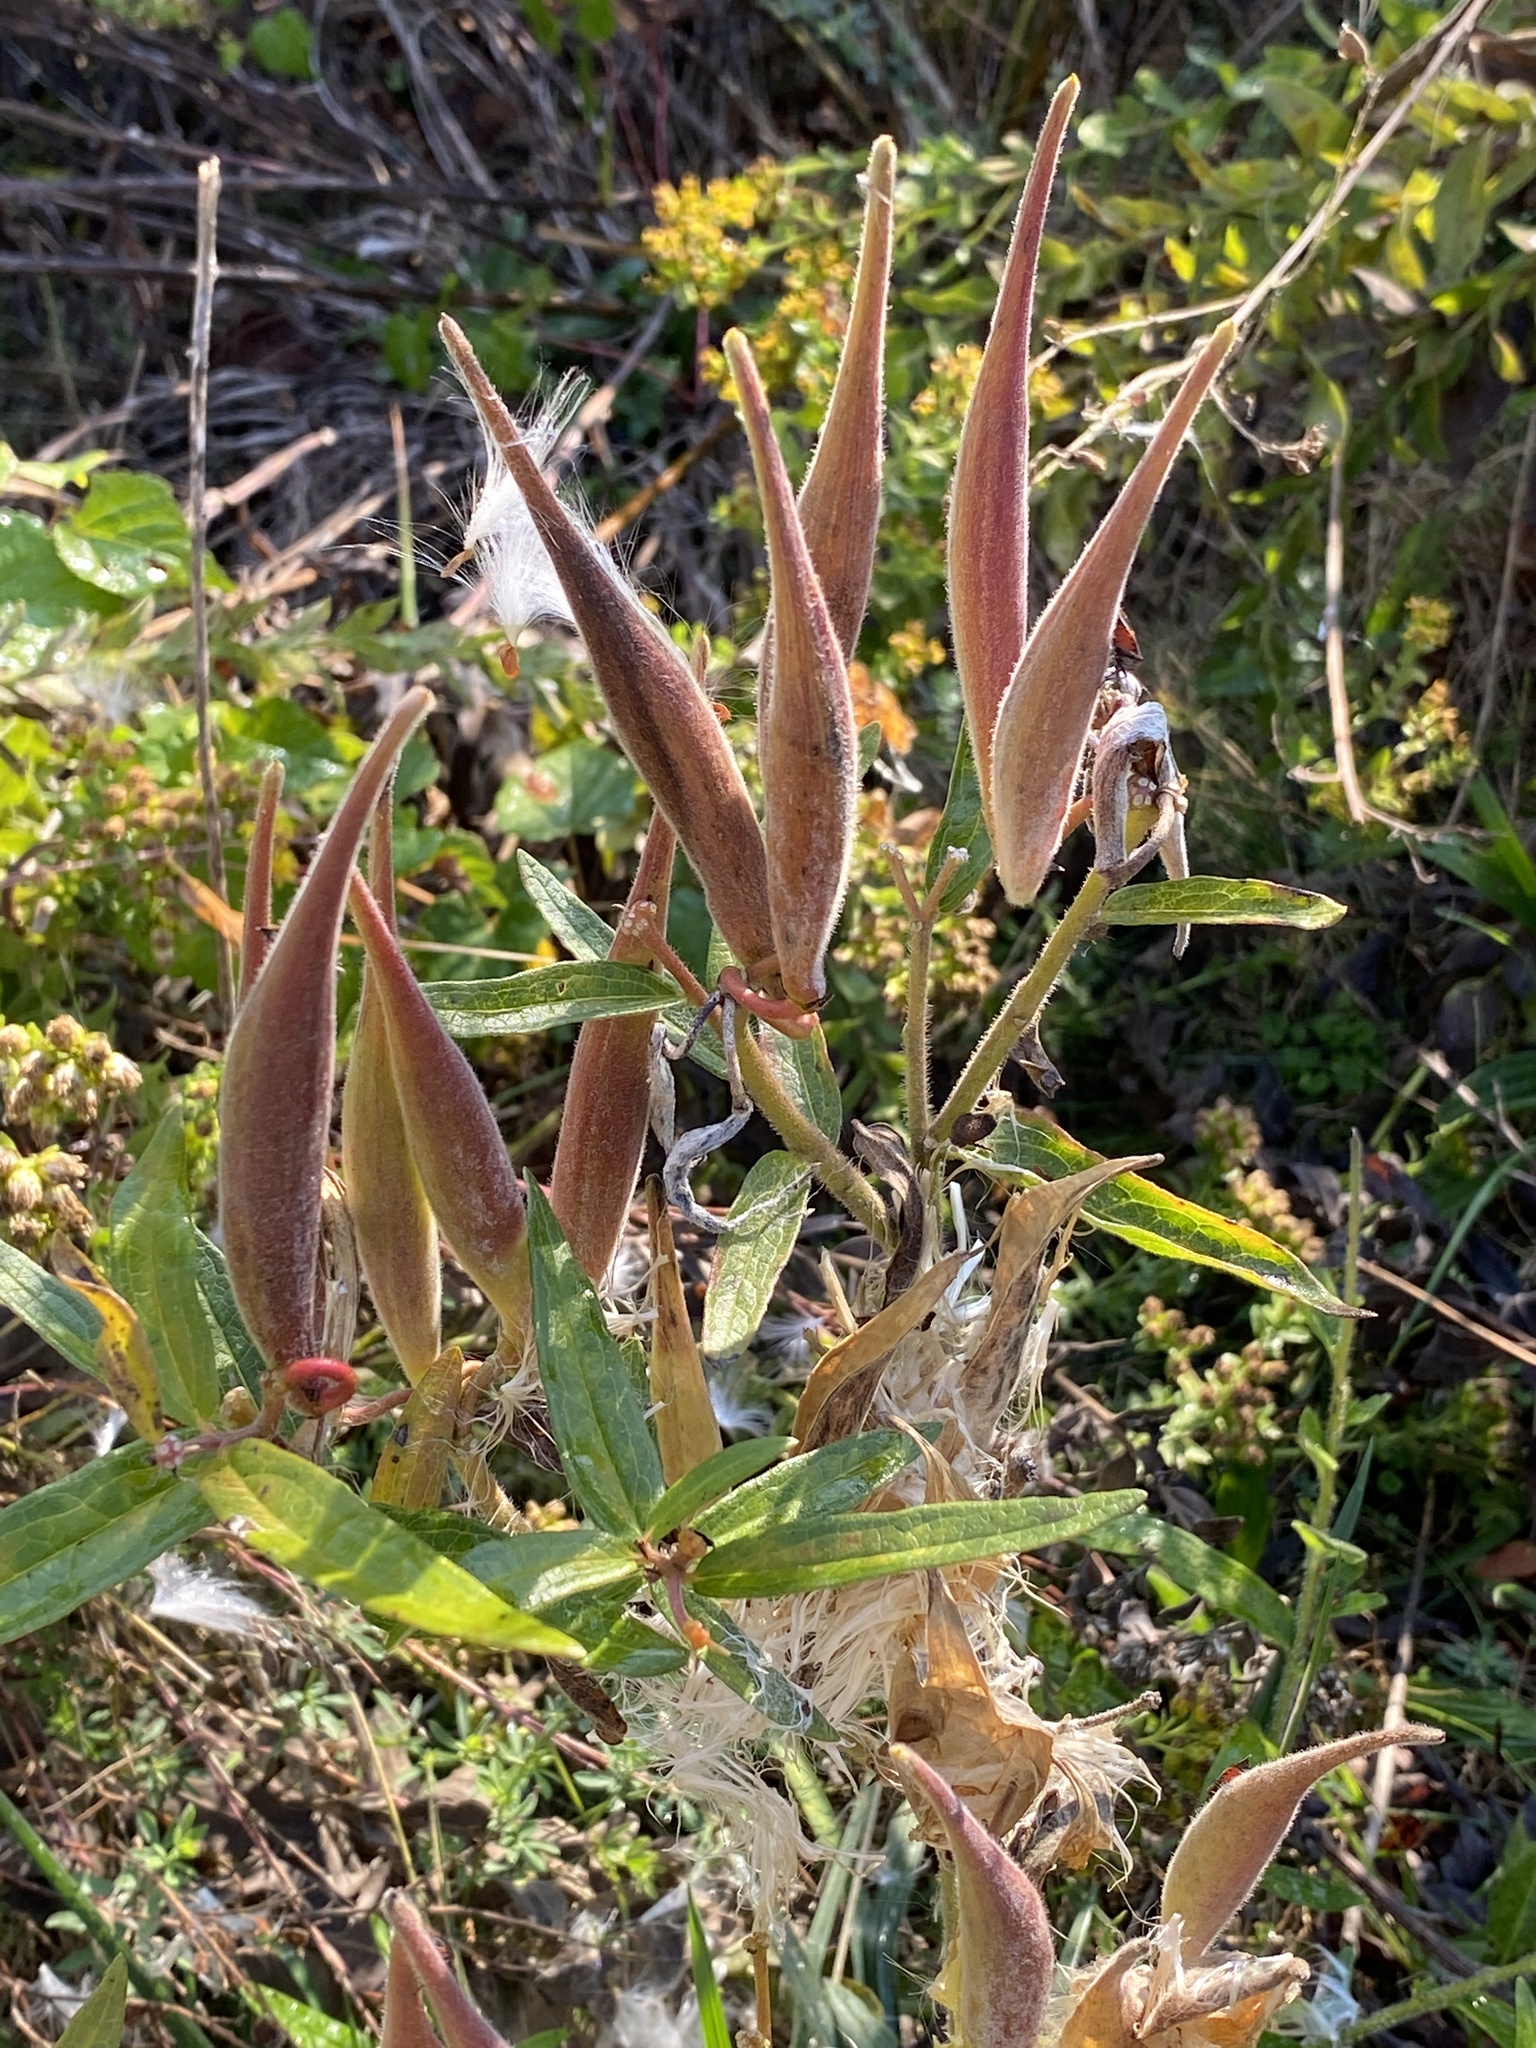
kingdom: Plantae
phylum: Tracheophyta
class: Magnoliopsida
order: Gentianales
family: Apocynaceae
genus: Asclepias
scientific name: Asclepias tuberosa
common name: Butterfly milkweed
